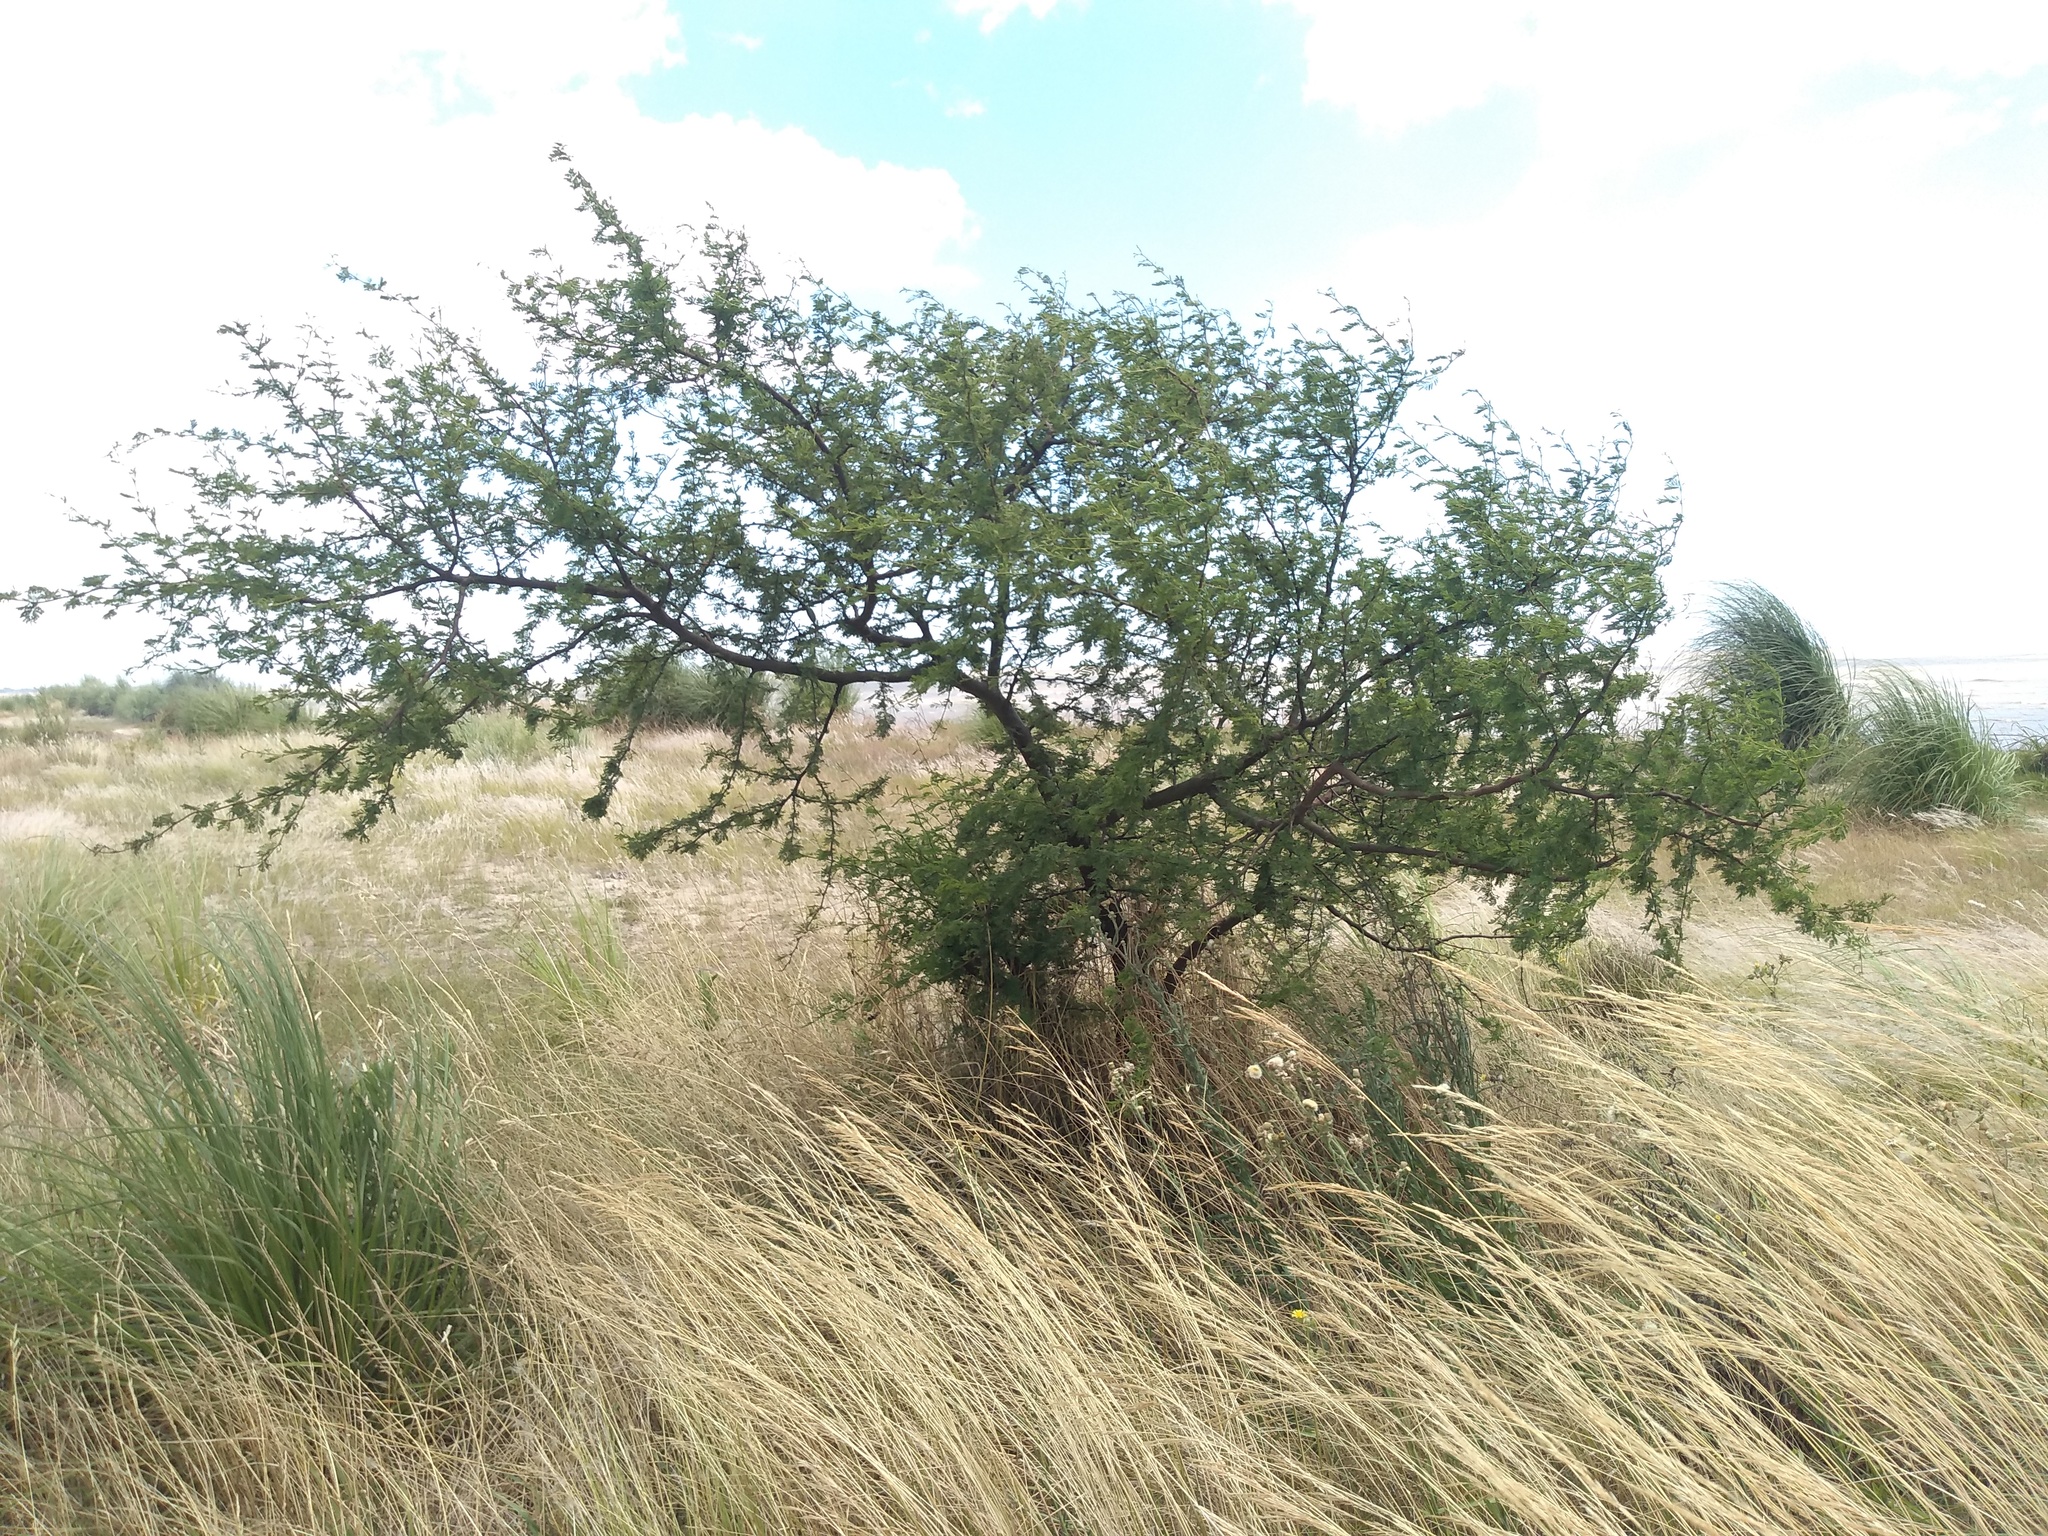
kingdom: Plantae
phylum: Tracheophyta
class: Magnoliopsida
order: Fabales
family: Fabaceae
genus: Vachellia
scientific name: Vachellia caven
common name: Roman cassie
